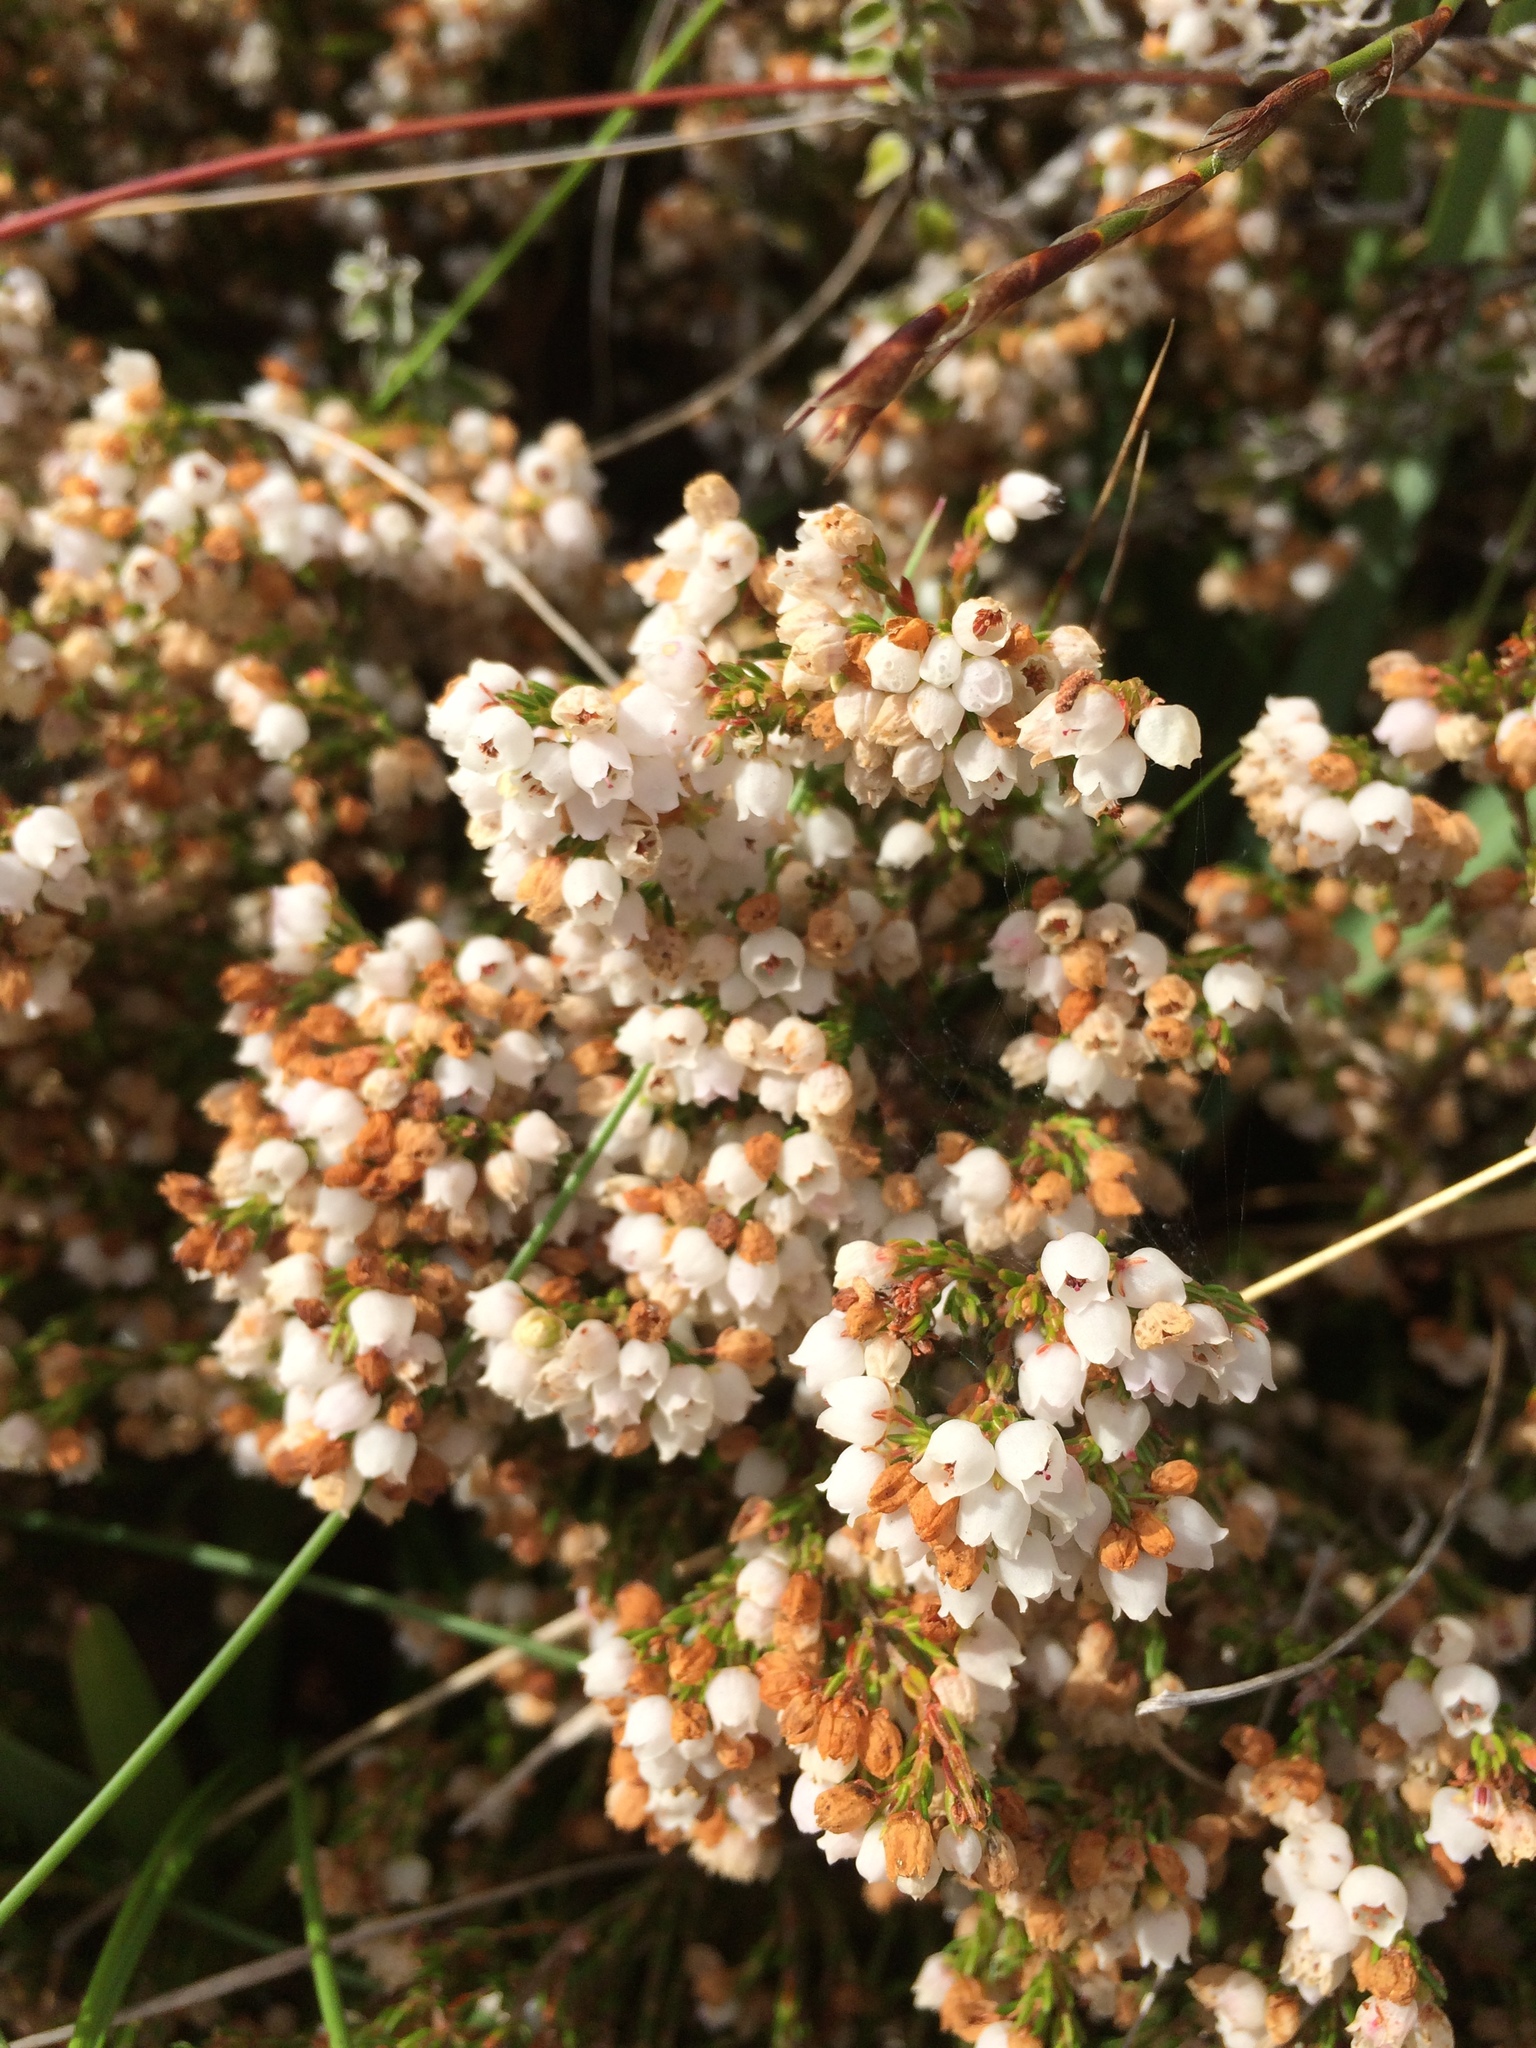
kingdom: Plantae
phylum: Tracheophyta
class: Magnoliopsida
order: Ericales
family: Ericaceae
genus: Erica
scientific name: Erica capensis
